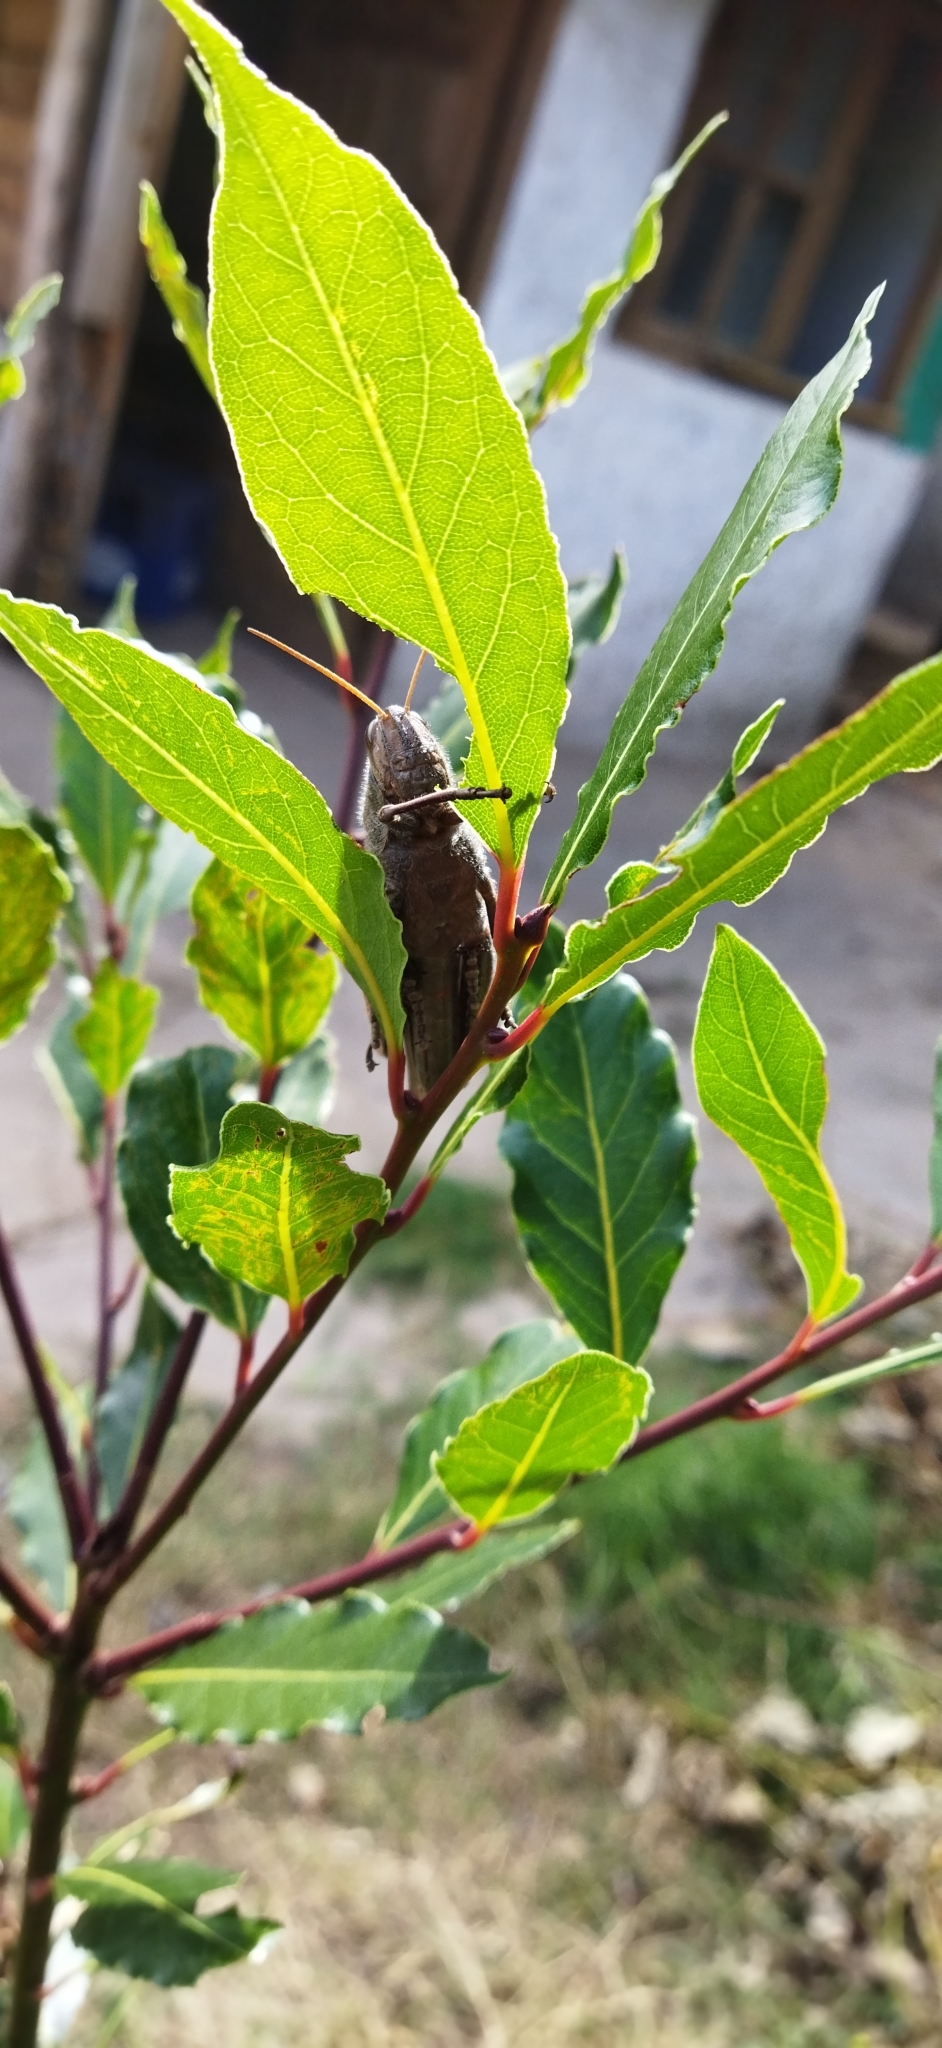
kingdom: Animalia
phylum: Arthropoda
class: Insecta
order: Orthoptera
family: Acrididae
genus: Schistocerca
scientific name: Schistocerca flavofasciata
